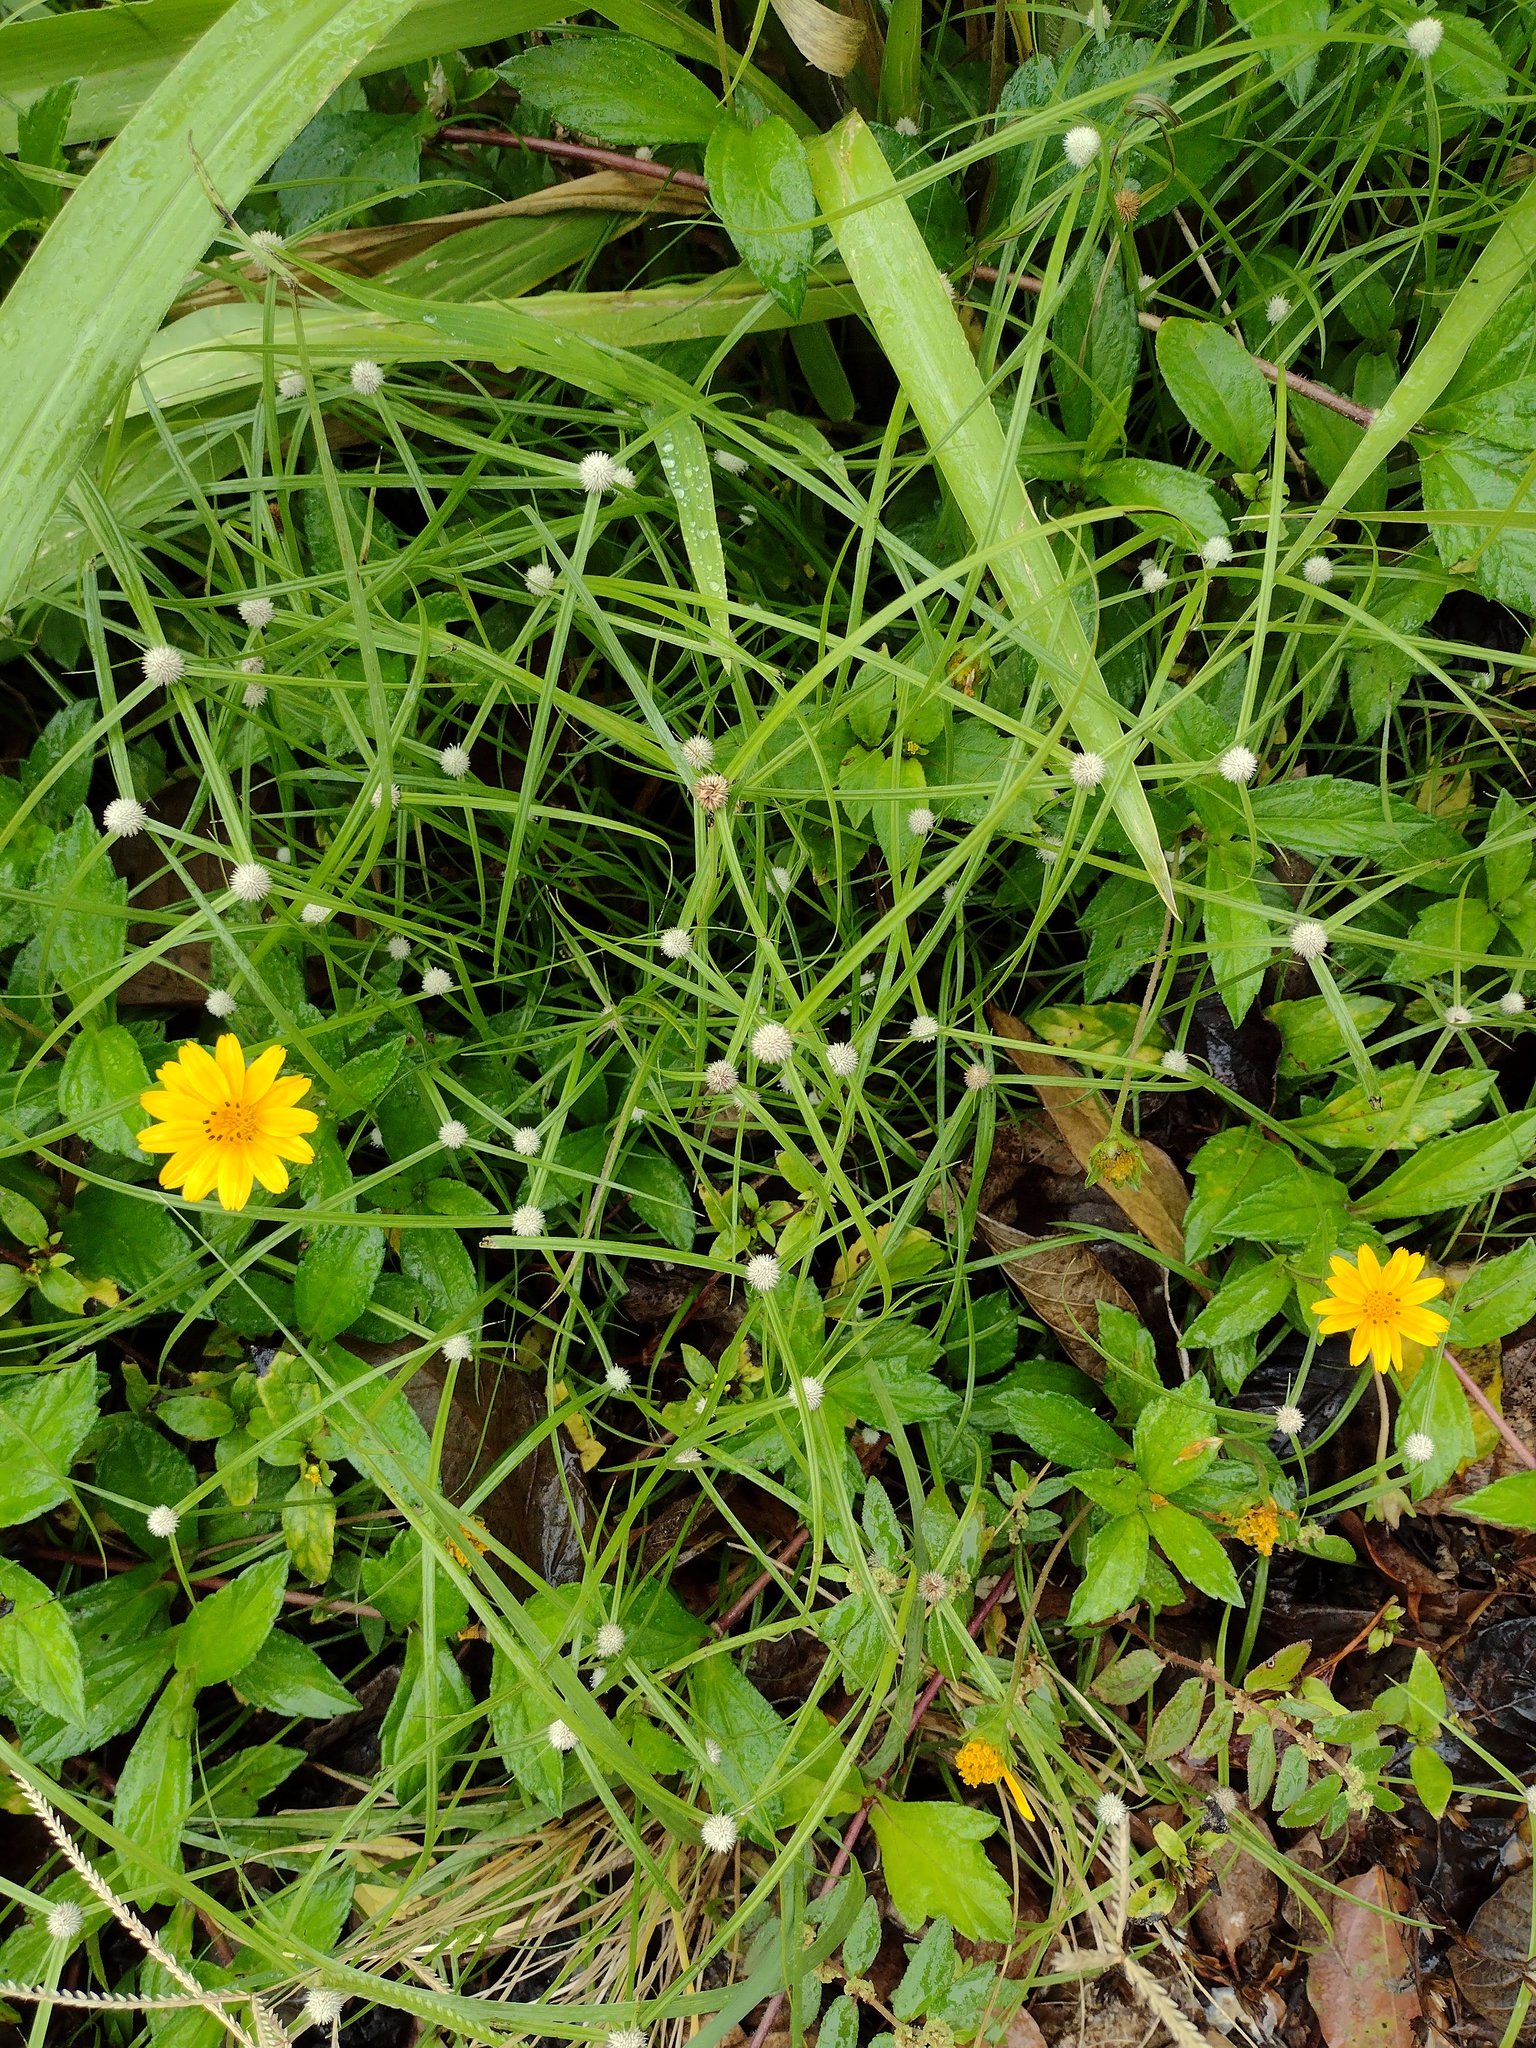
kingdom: Plantae
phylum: Tracheophyta
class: Liliopsida
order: Poales
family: Cyperaceae
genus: Cyperus
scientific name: Cyperus mindorensis
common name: Flatsedge
